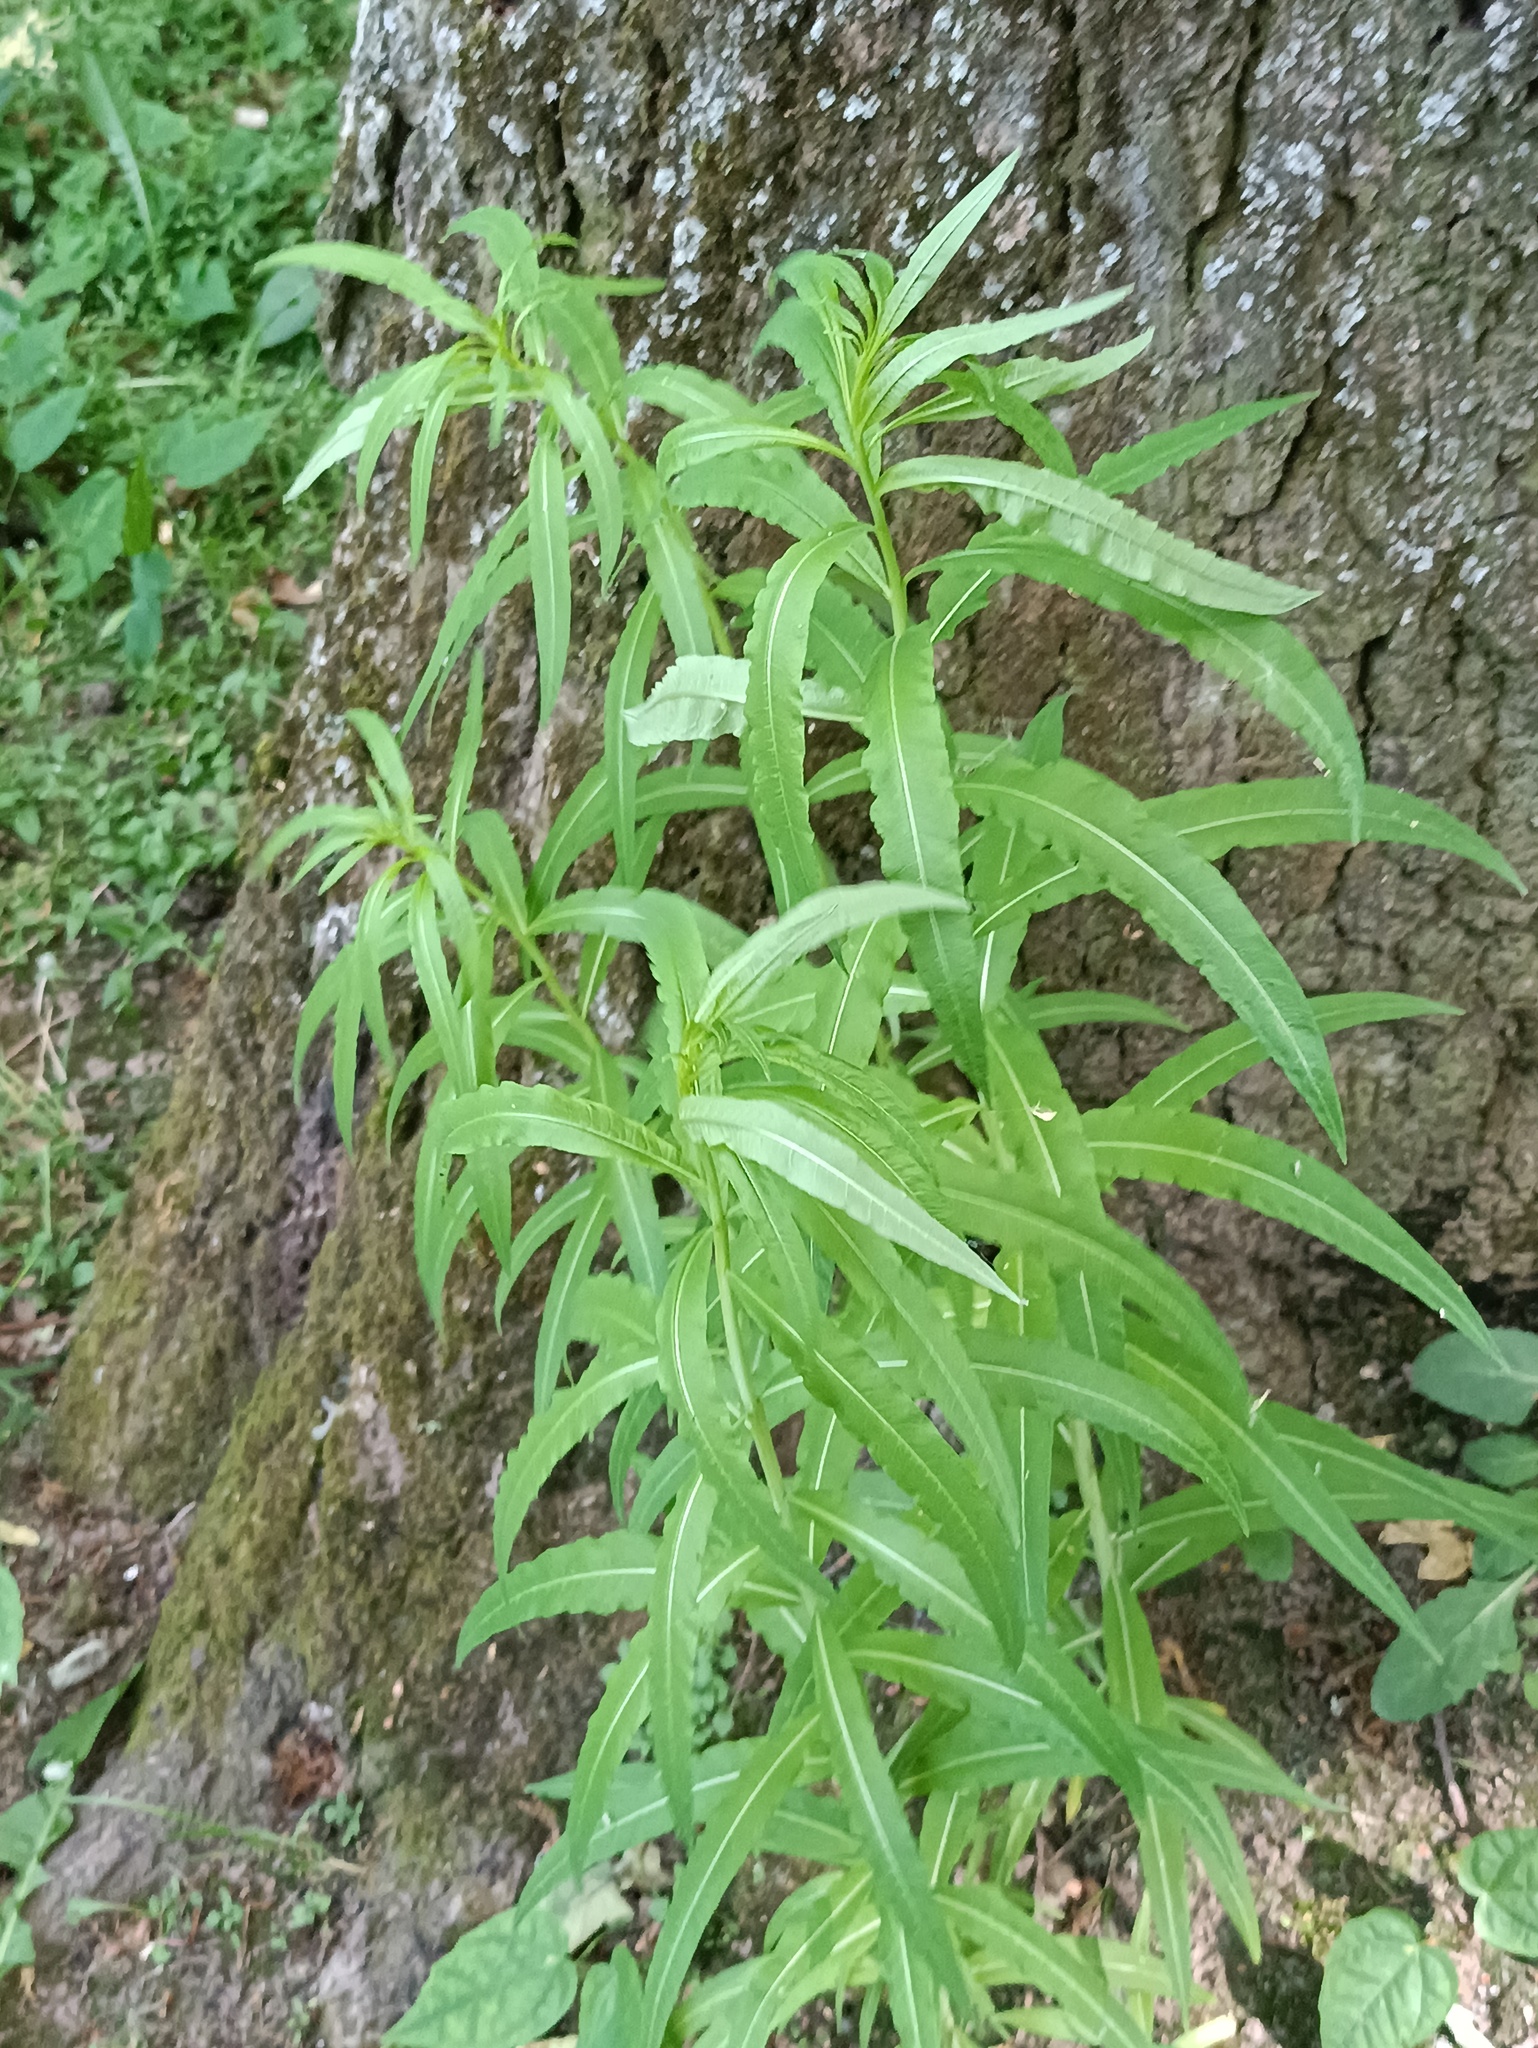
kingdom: Plantae
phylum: Tracheophyta
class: Magnoliopsida
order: Myrtales
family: Onagraceae
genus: Chamaenerion
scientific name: Chamaenerion angustifolium
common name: Fireweed
